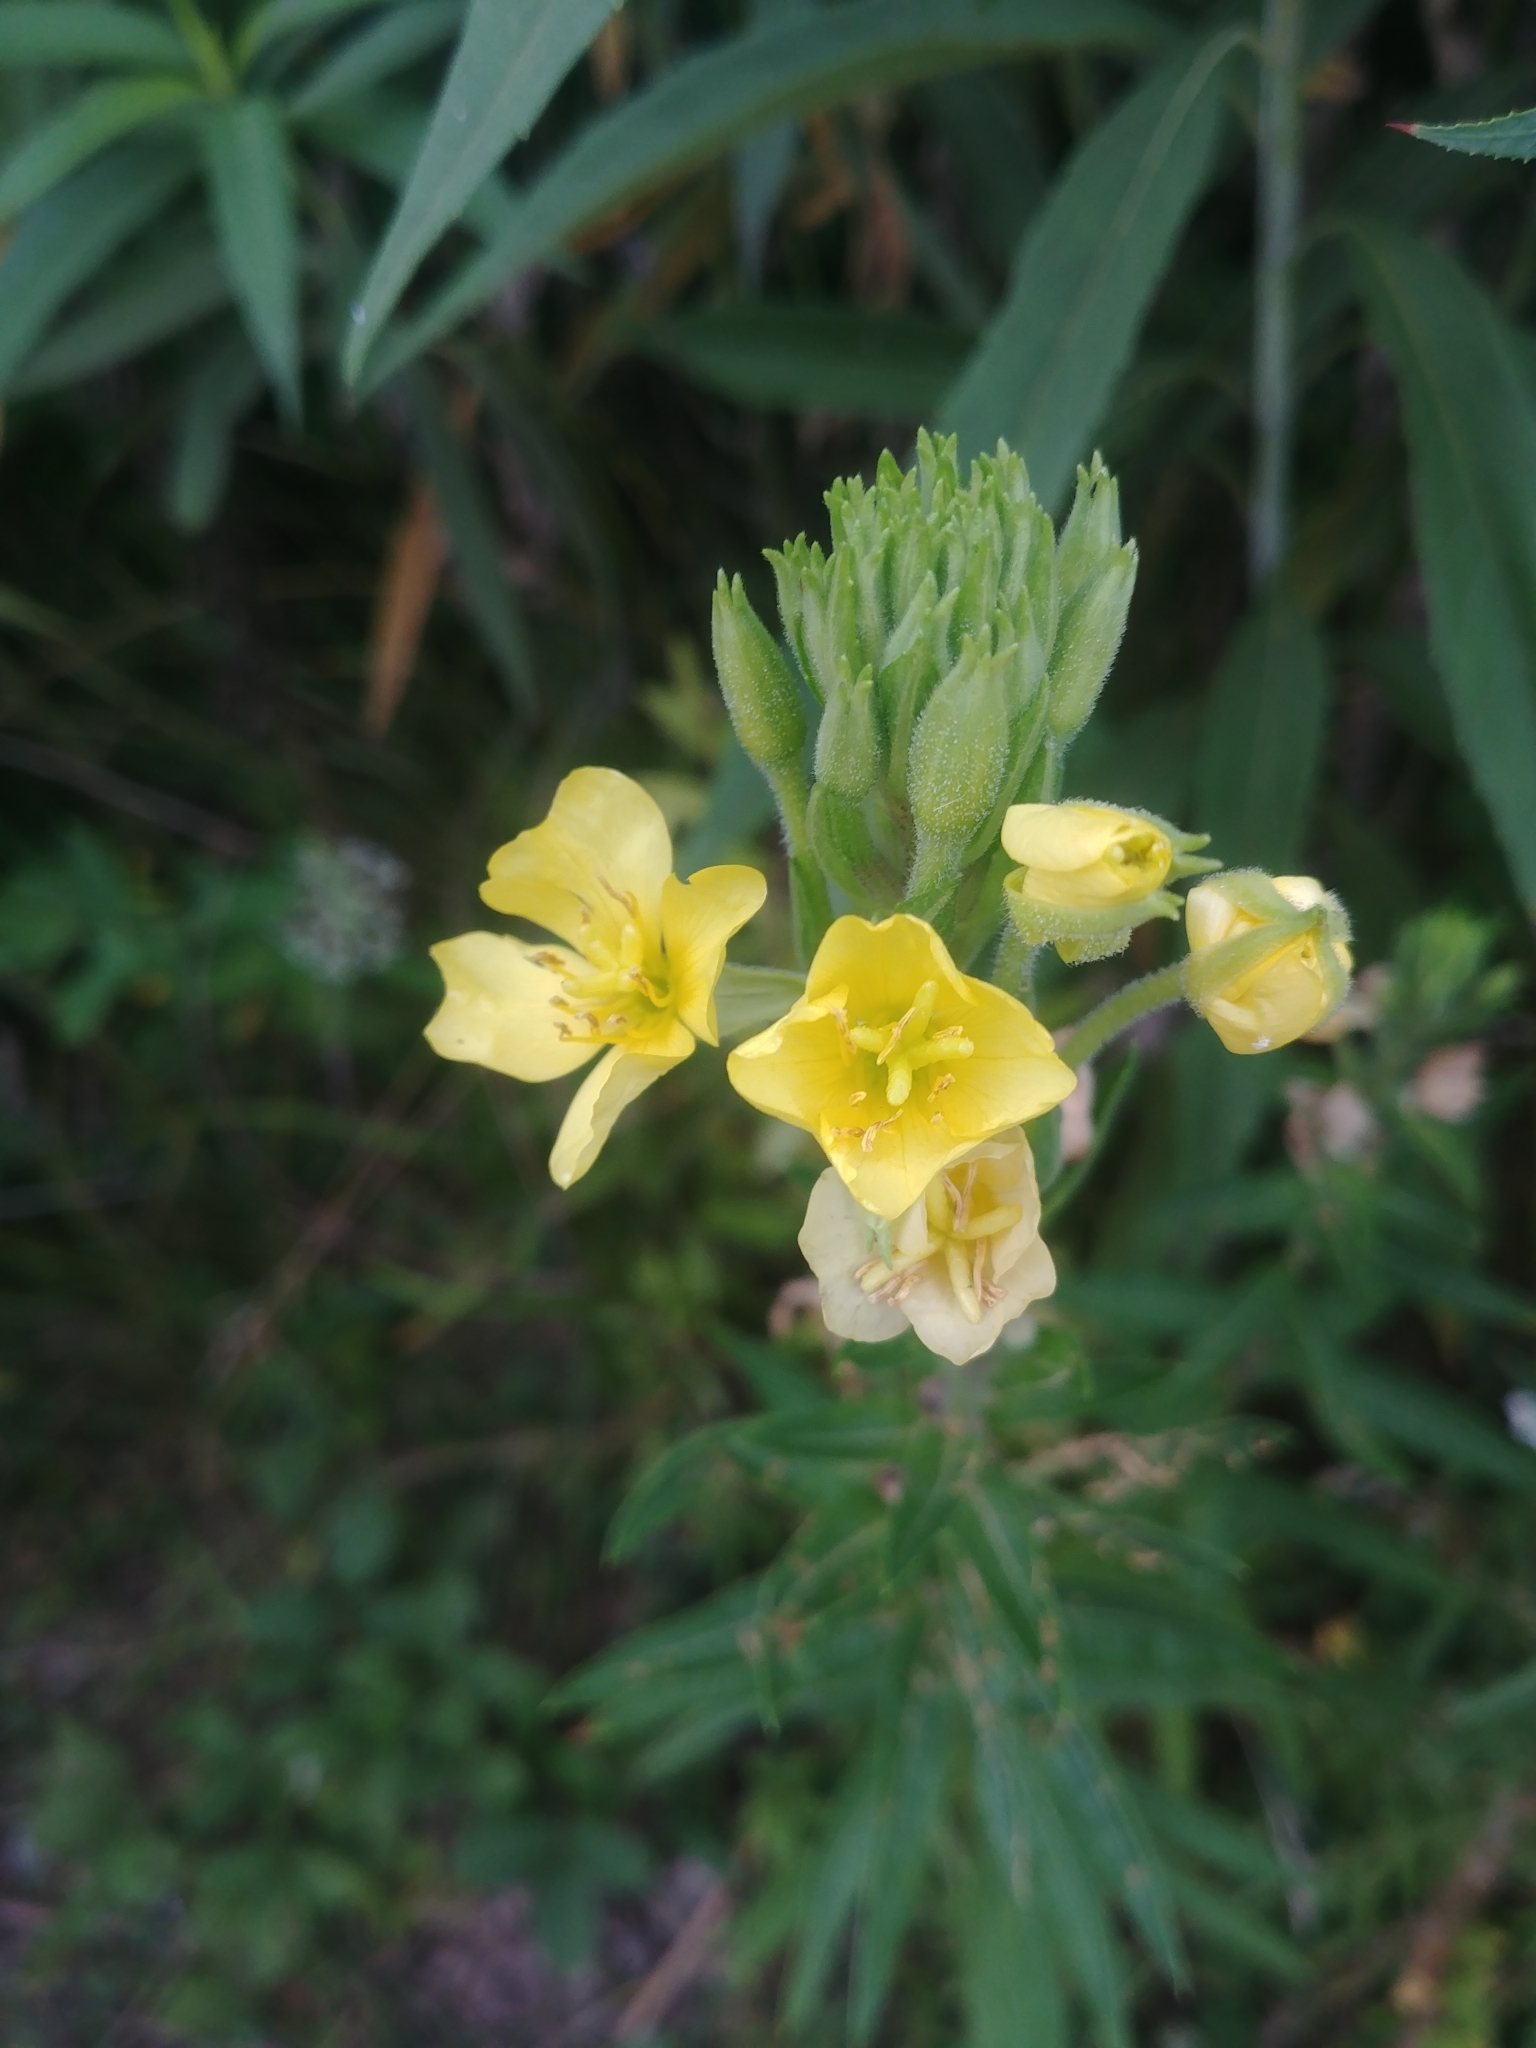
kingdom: Plantae
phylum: Tracheophyta
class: Magnoliopsida
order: Myrtales
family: Onagraceae
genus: Oenothera
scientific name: Oenothera biennis
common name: Common evening-primrose
